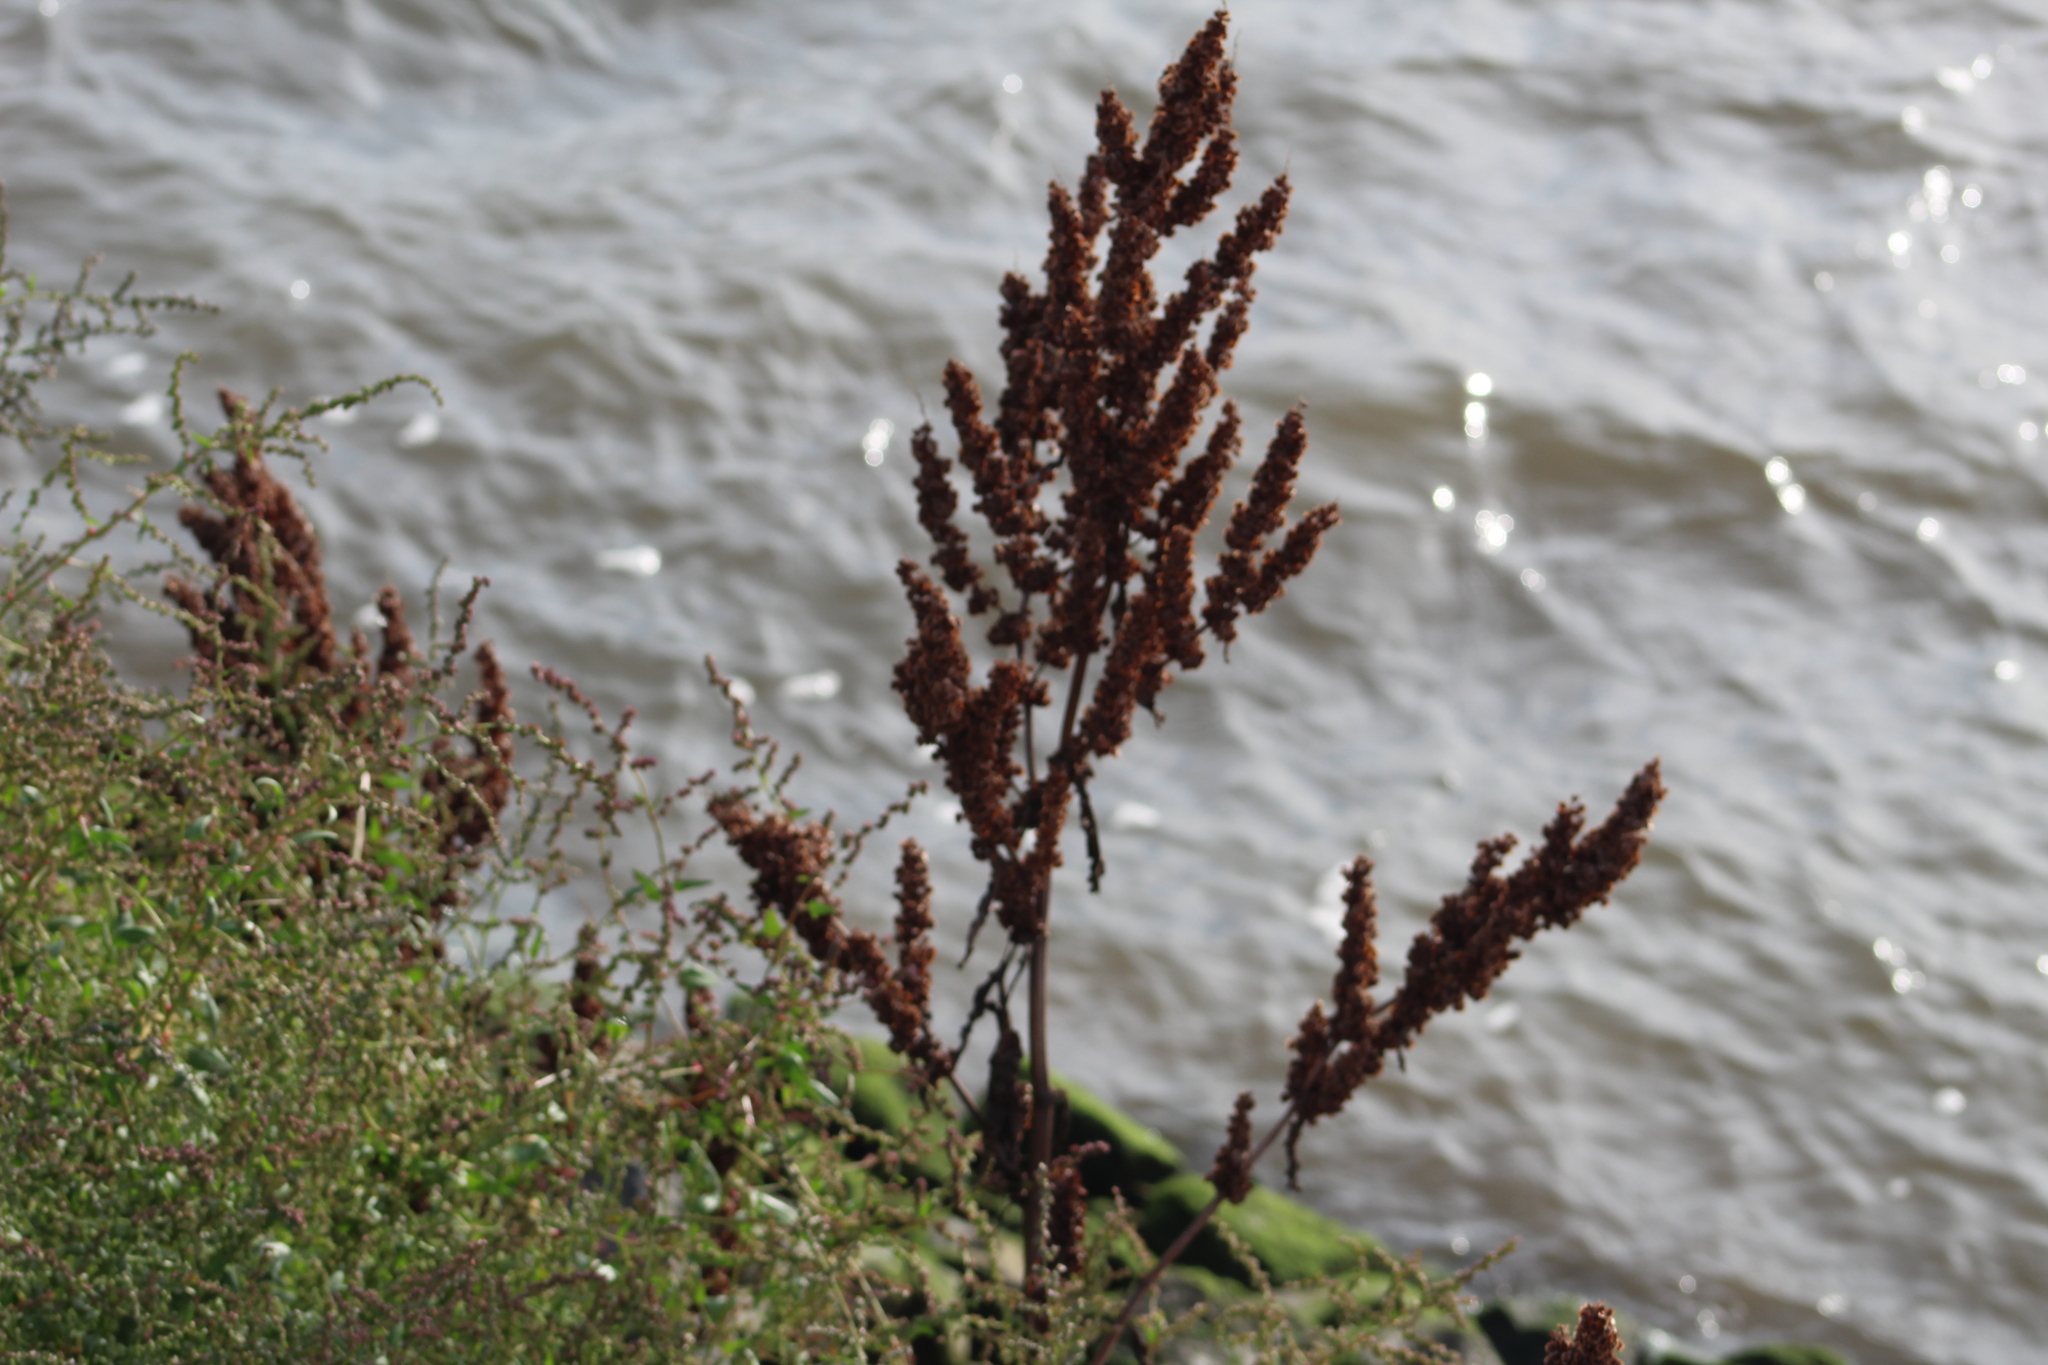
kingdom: Plantae
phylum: Tracheophyta
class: Magnoliopsida
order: Caryophyllales
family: Polygonaceae
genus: Rumex
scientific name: Rumex crispus
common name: Curled dock
